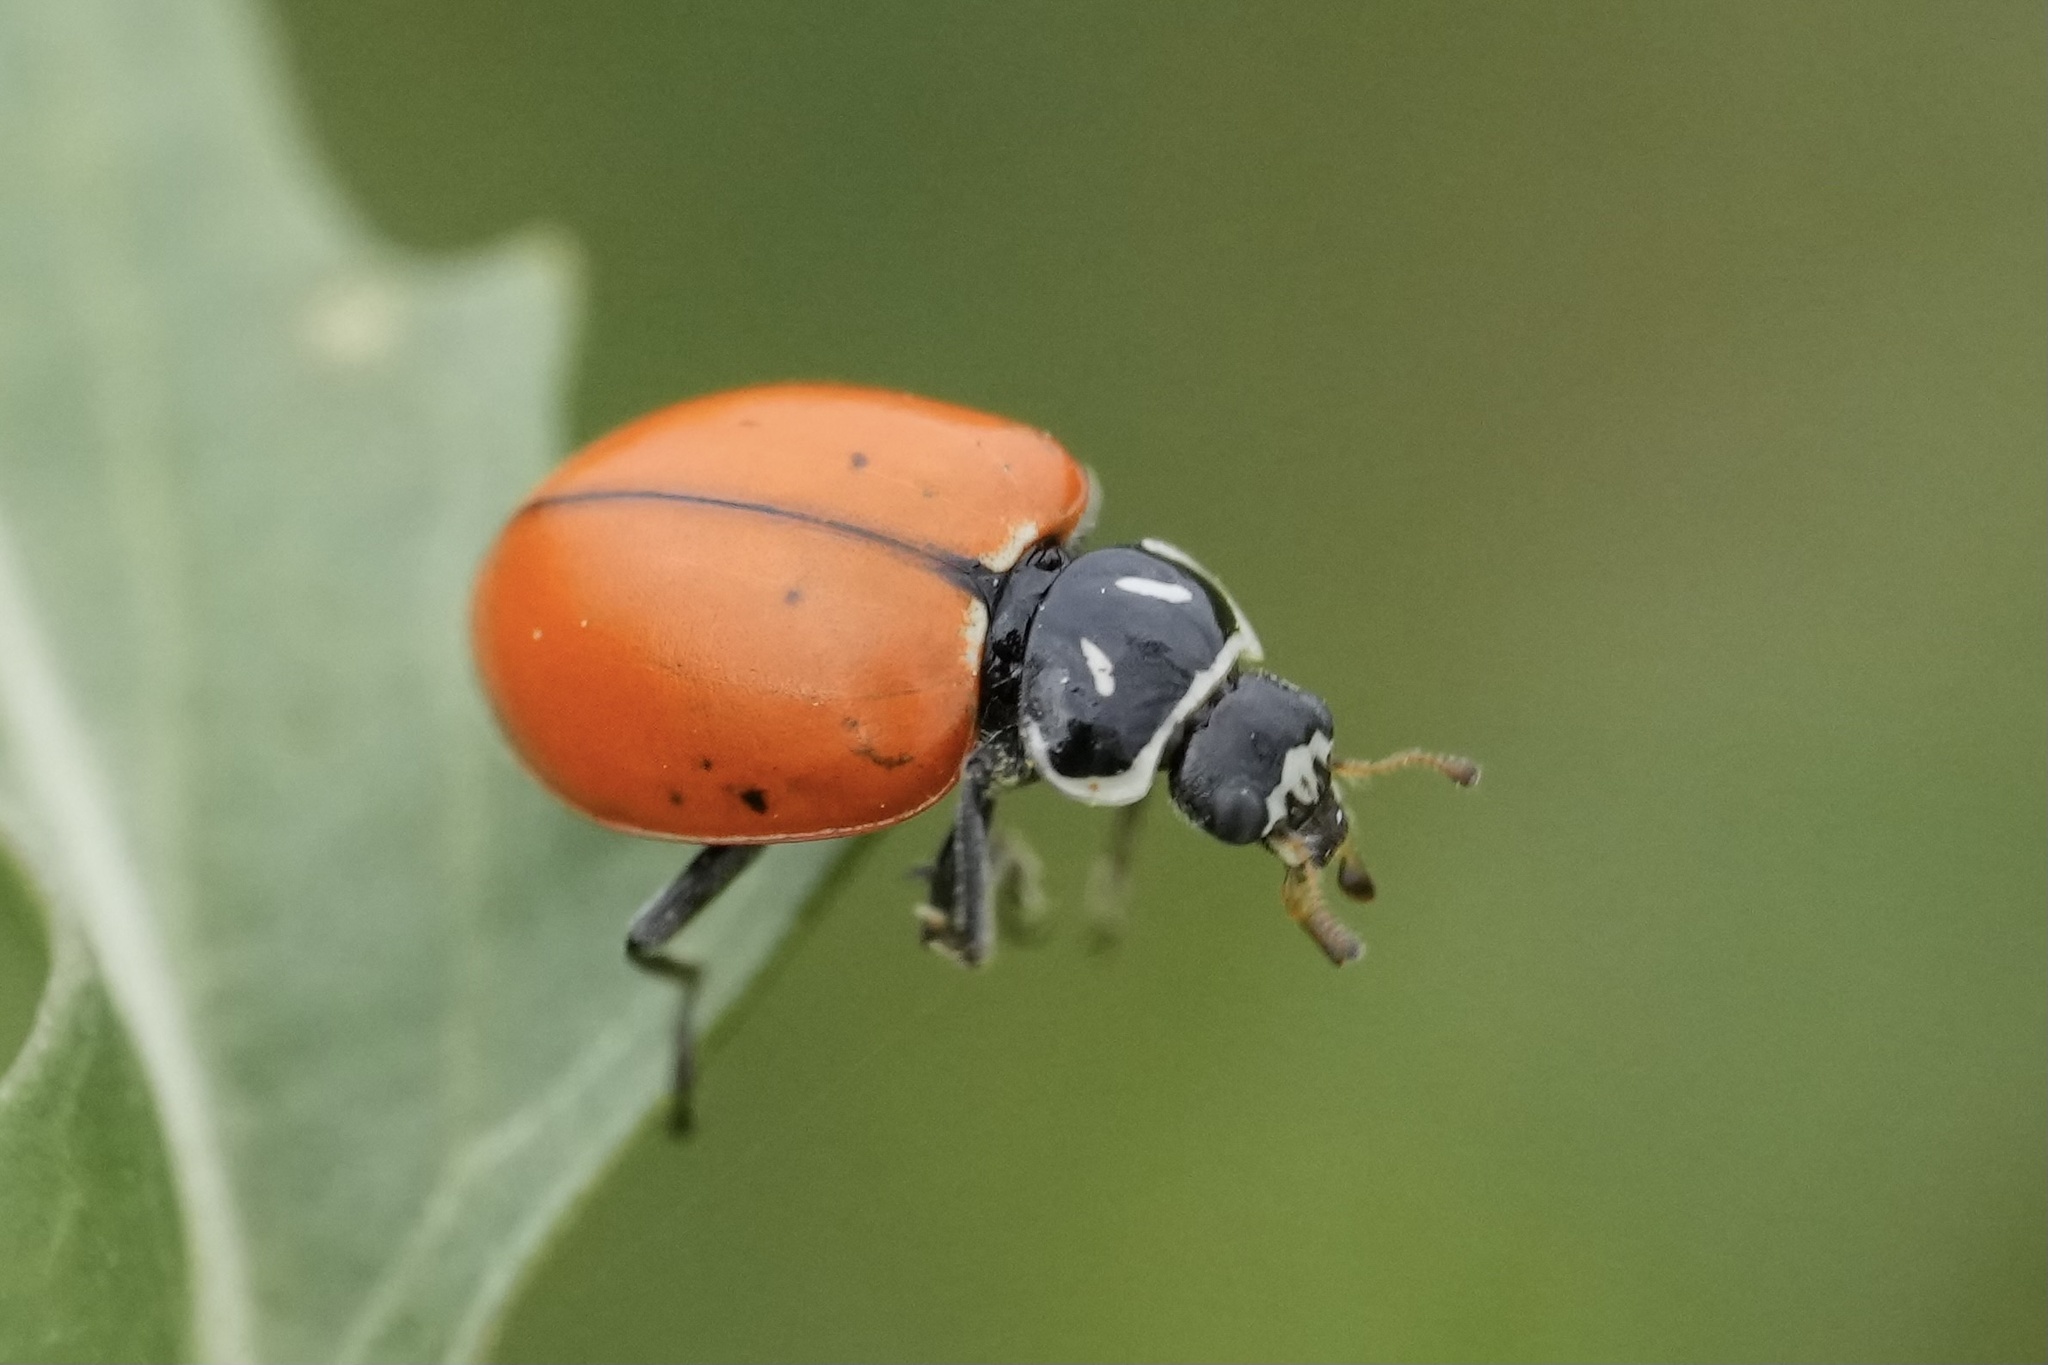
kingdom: Animalia
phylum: Arthropoda
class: Insecta
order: Coleoptera
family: Coccinellidae
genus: Hippodamia
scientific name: Hippodamia convergens
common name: Convergent lady beetle
